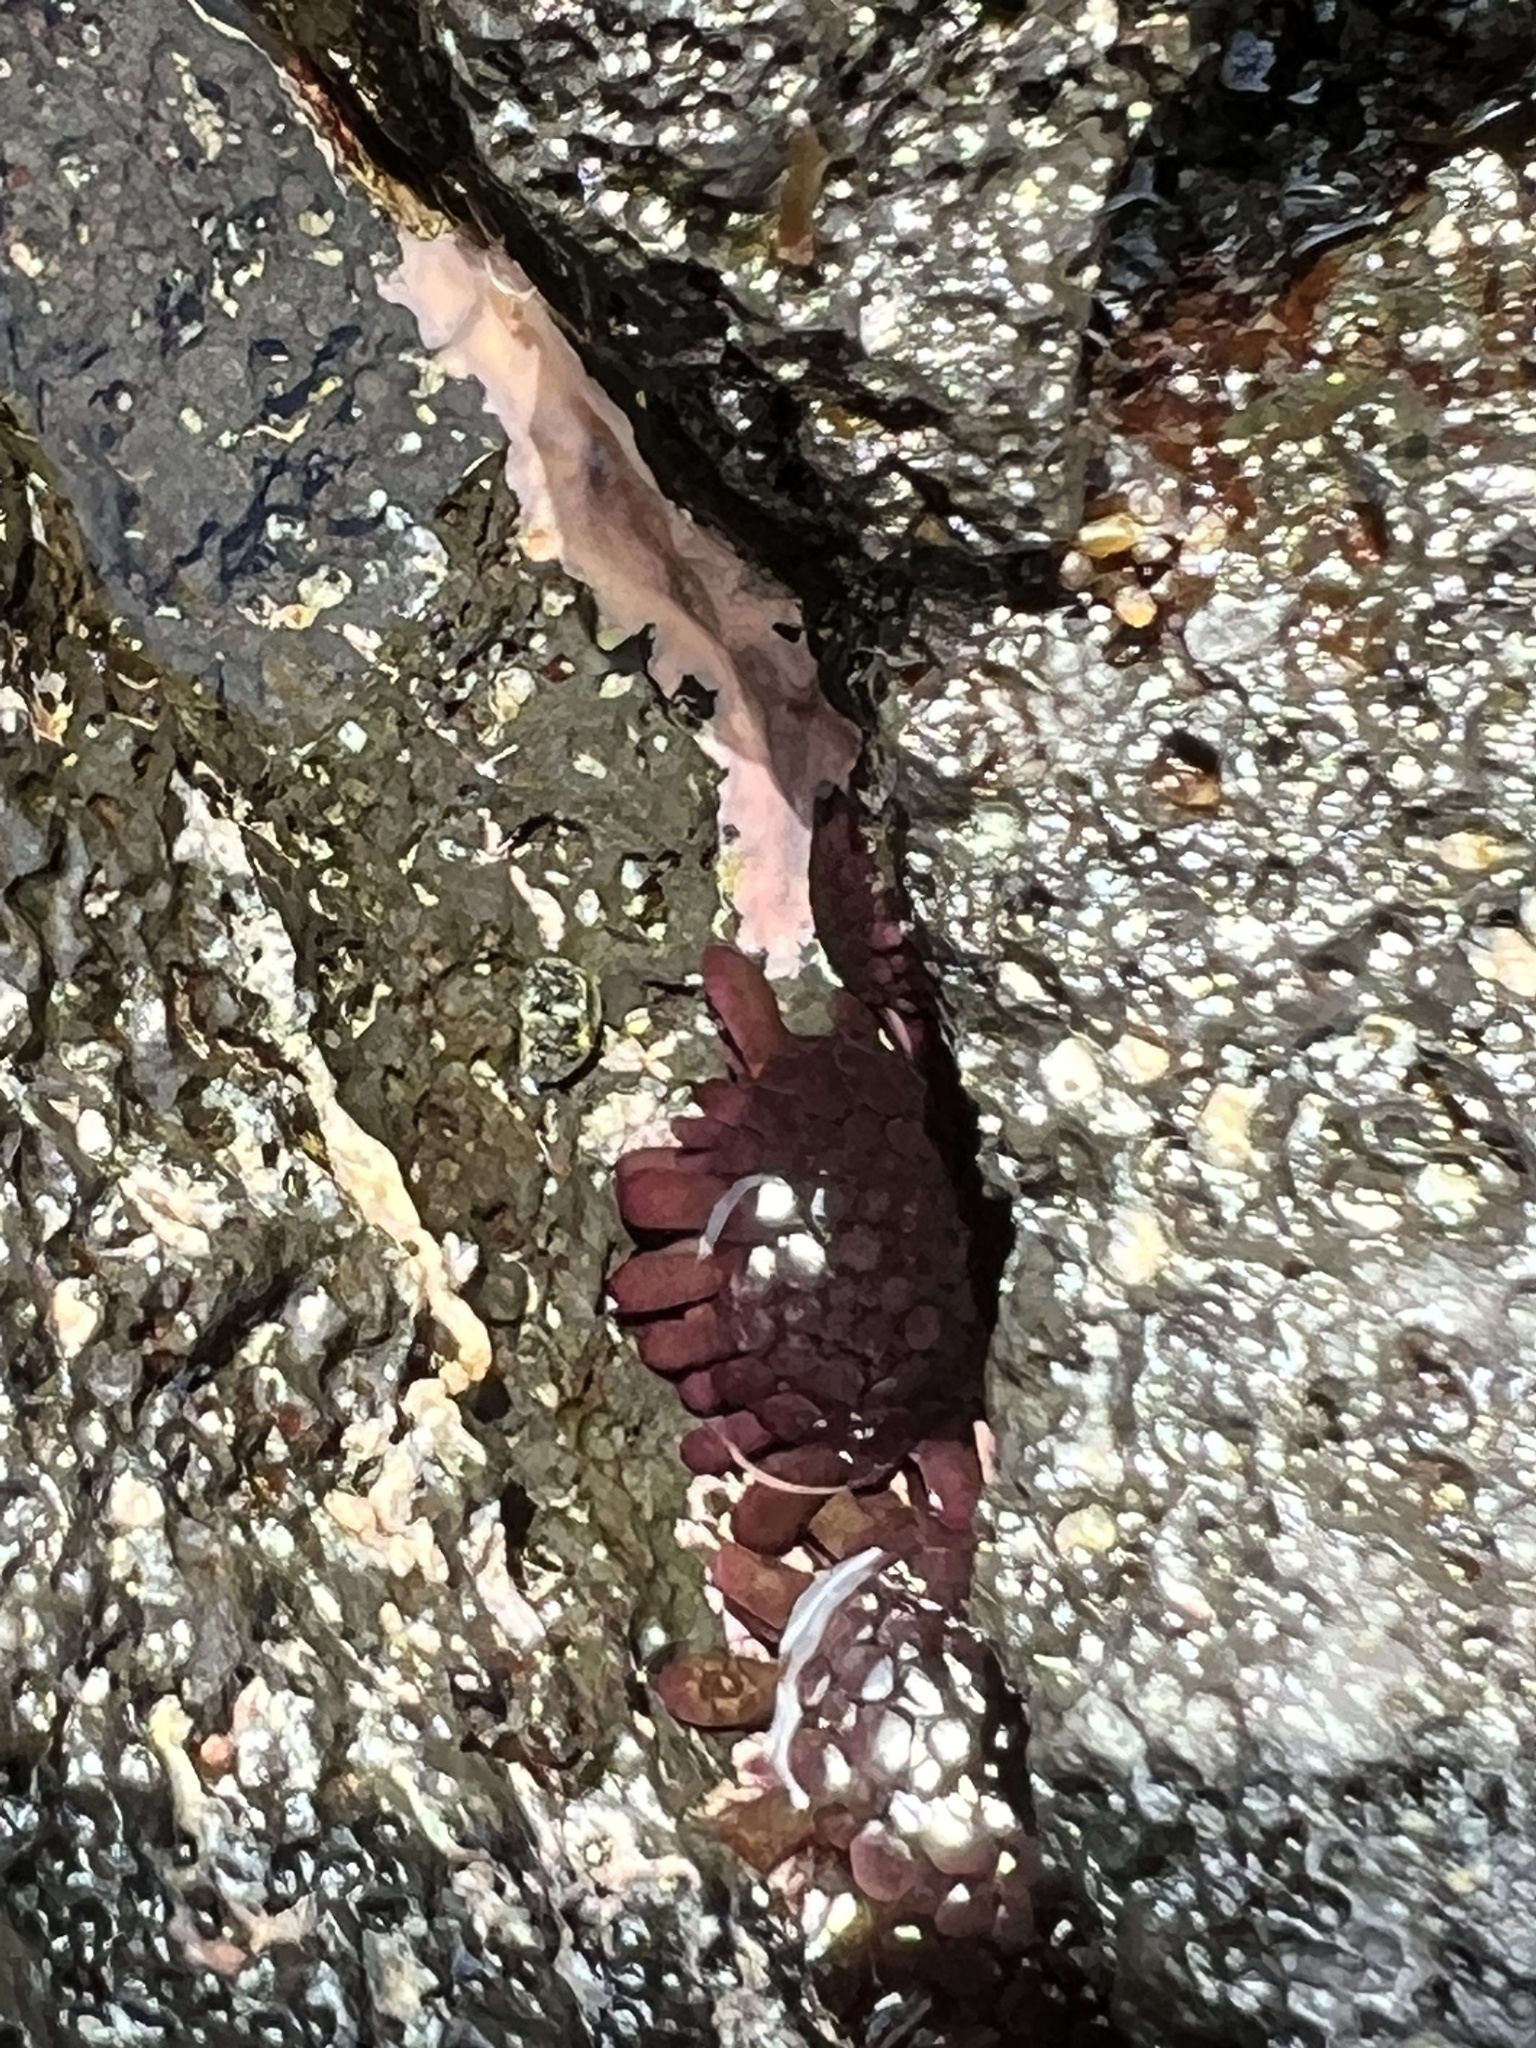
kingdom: Animalia
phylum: Echinodermata
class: Echinoidea
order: Camarodonta
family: Echinometridae
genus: Colobocentrotus
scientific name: Colobocentrotus atratus
